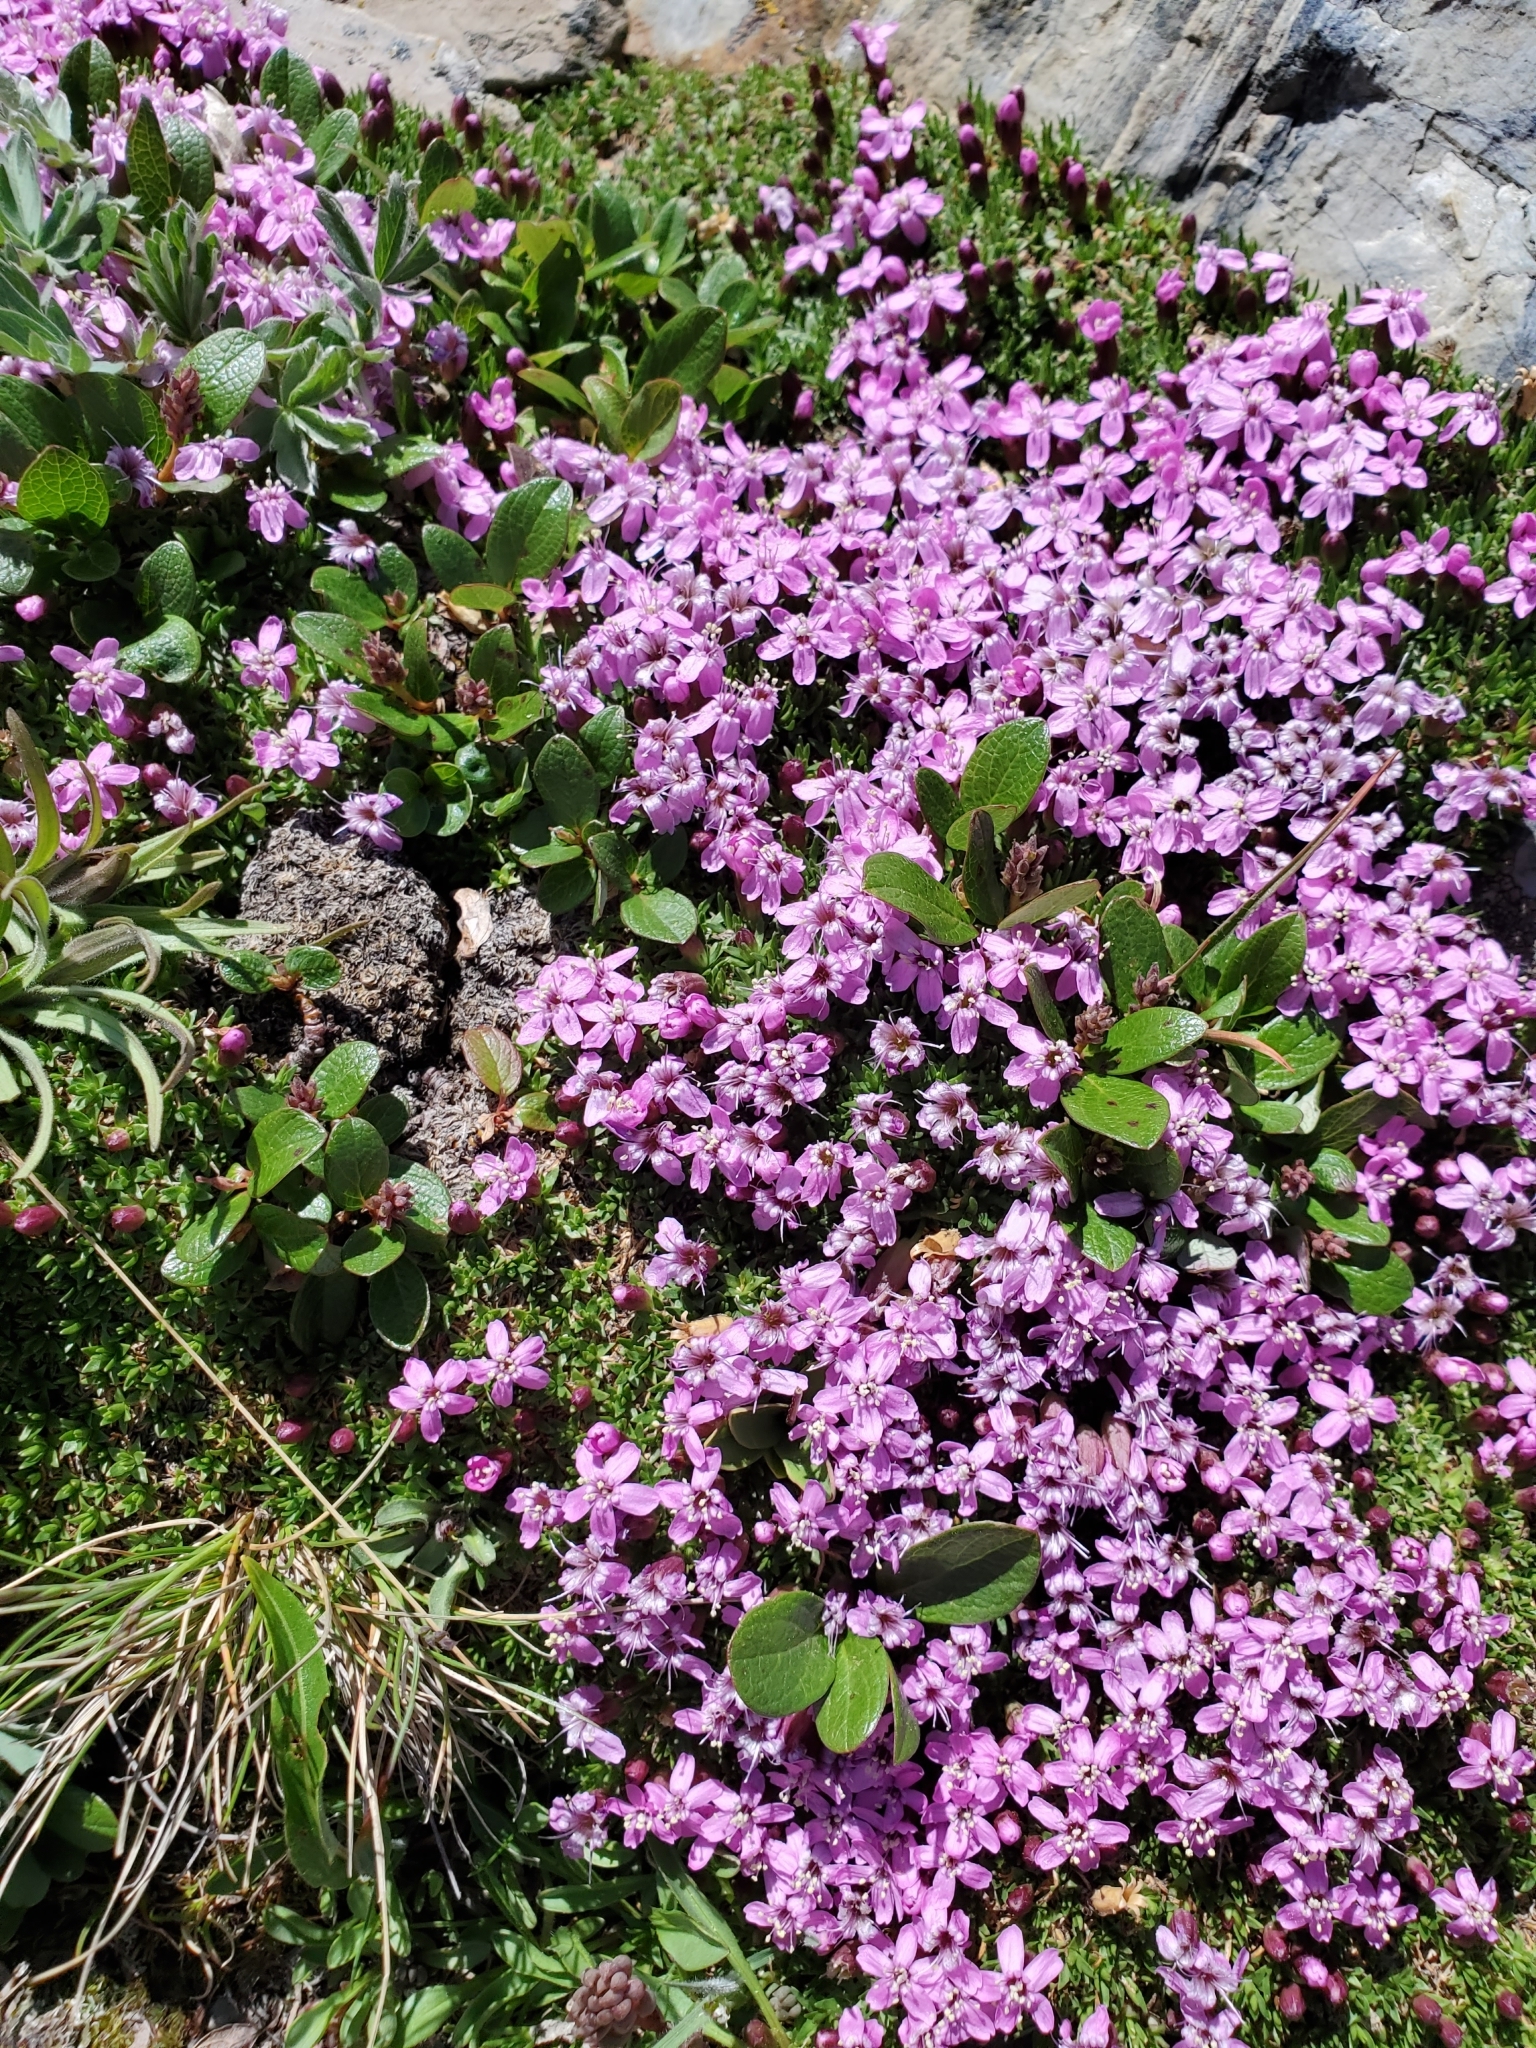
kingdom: Plantae
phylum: Tracheophyta
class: Magnoliopsida
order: Caryophyllales
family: Caryophyllaceae
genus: Silene
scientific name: Silene acaulis
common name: Moss campion
